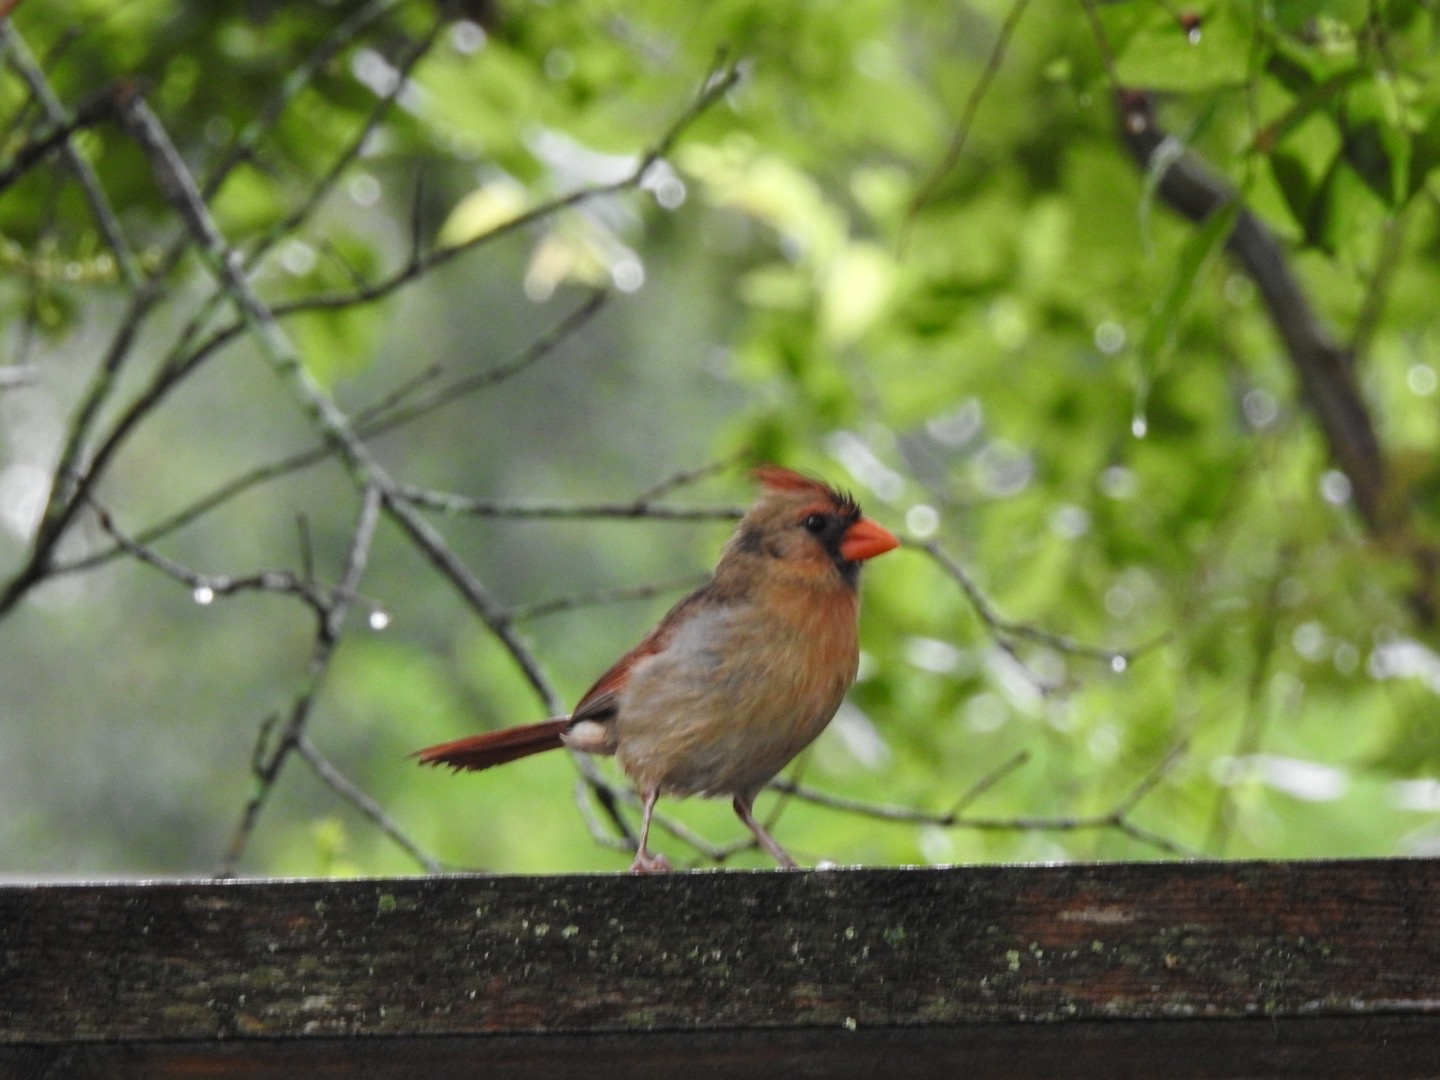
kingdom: Animalia
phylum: Chordata
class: Aves
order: Passeriformes
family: Cardinalidae
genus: Cardinalis
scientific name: Cardinalis cardinalis
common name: Northern cardinal
